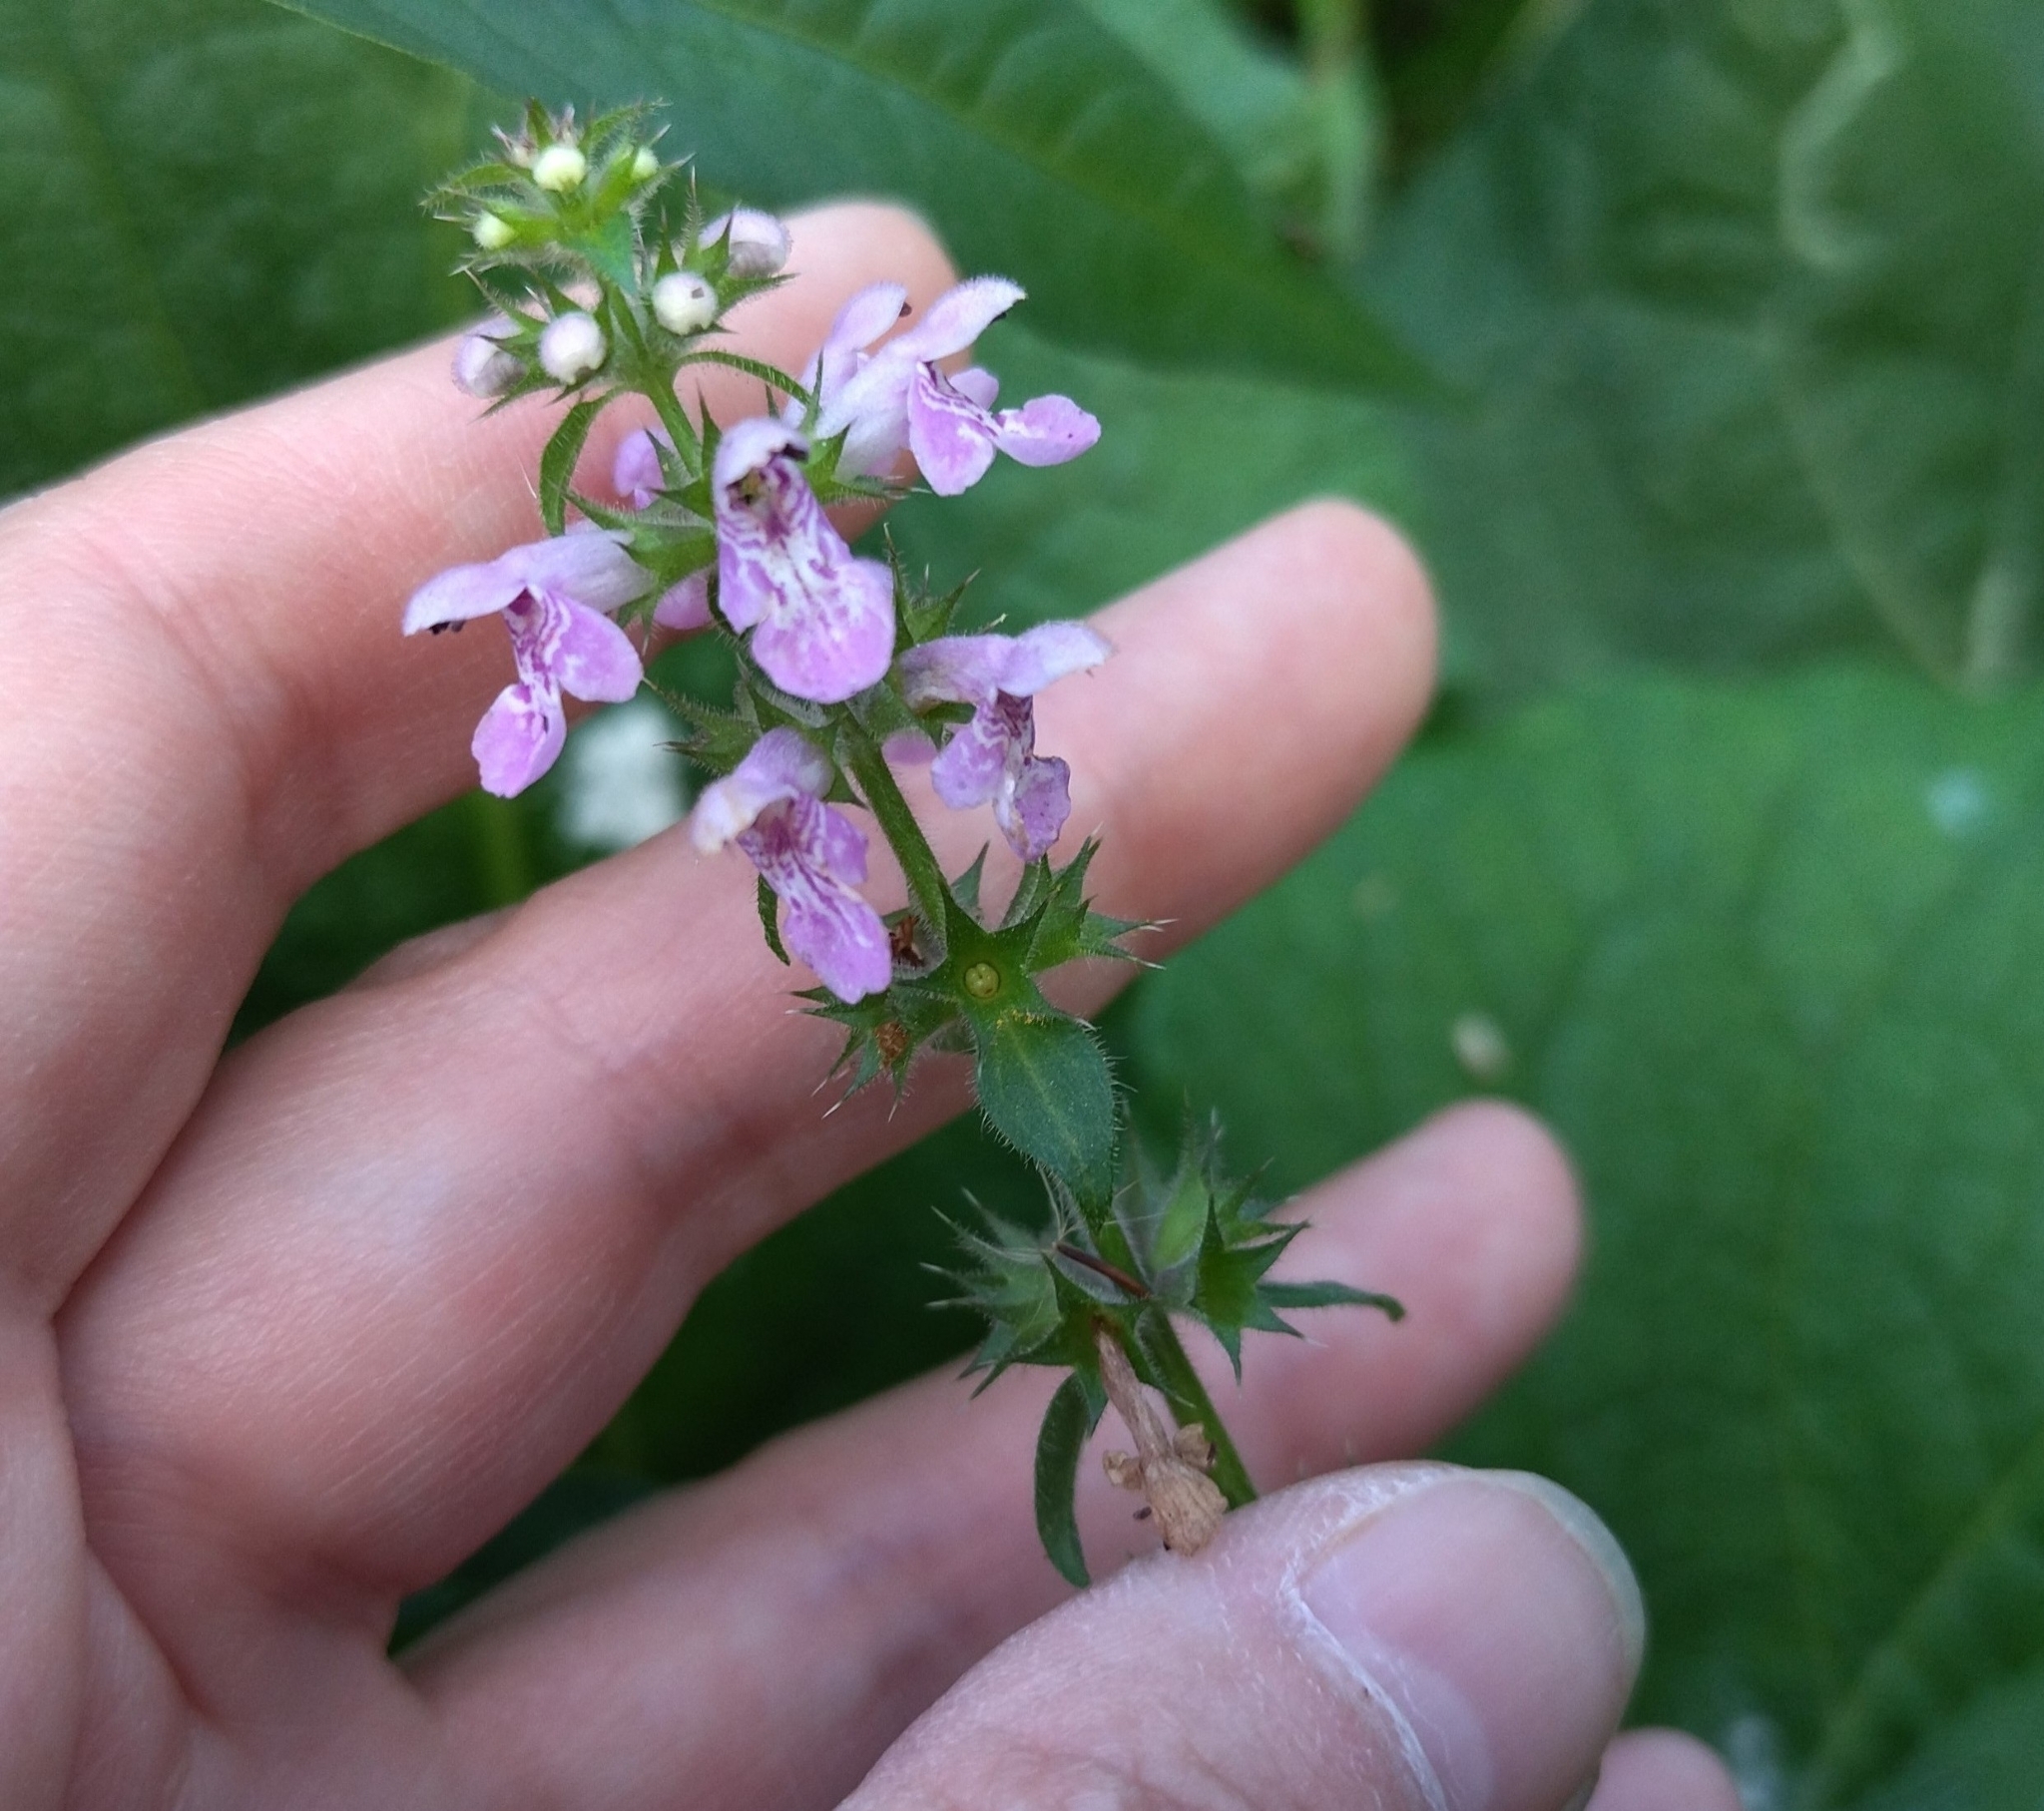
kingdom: Plantae
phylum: Tracheophyta
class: Magnoliopsida
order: Lamiales
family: Lamiaceae
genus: Stachys
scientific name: Stachys palustris
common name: Marsh woundwort
